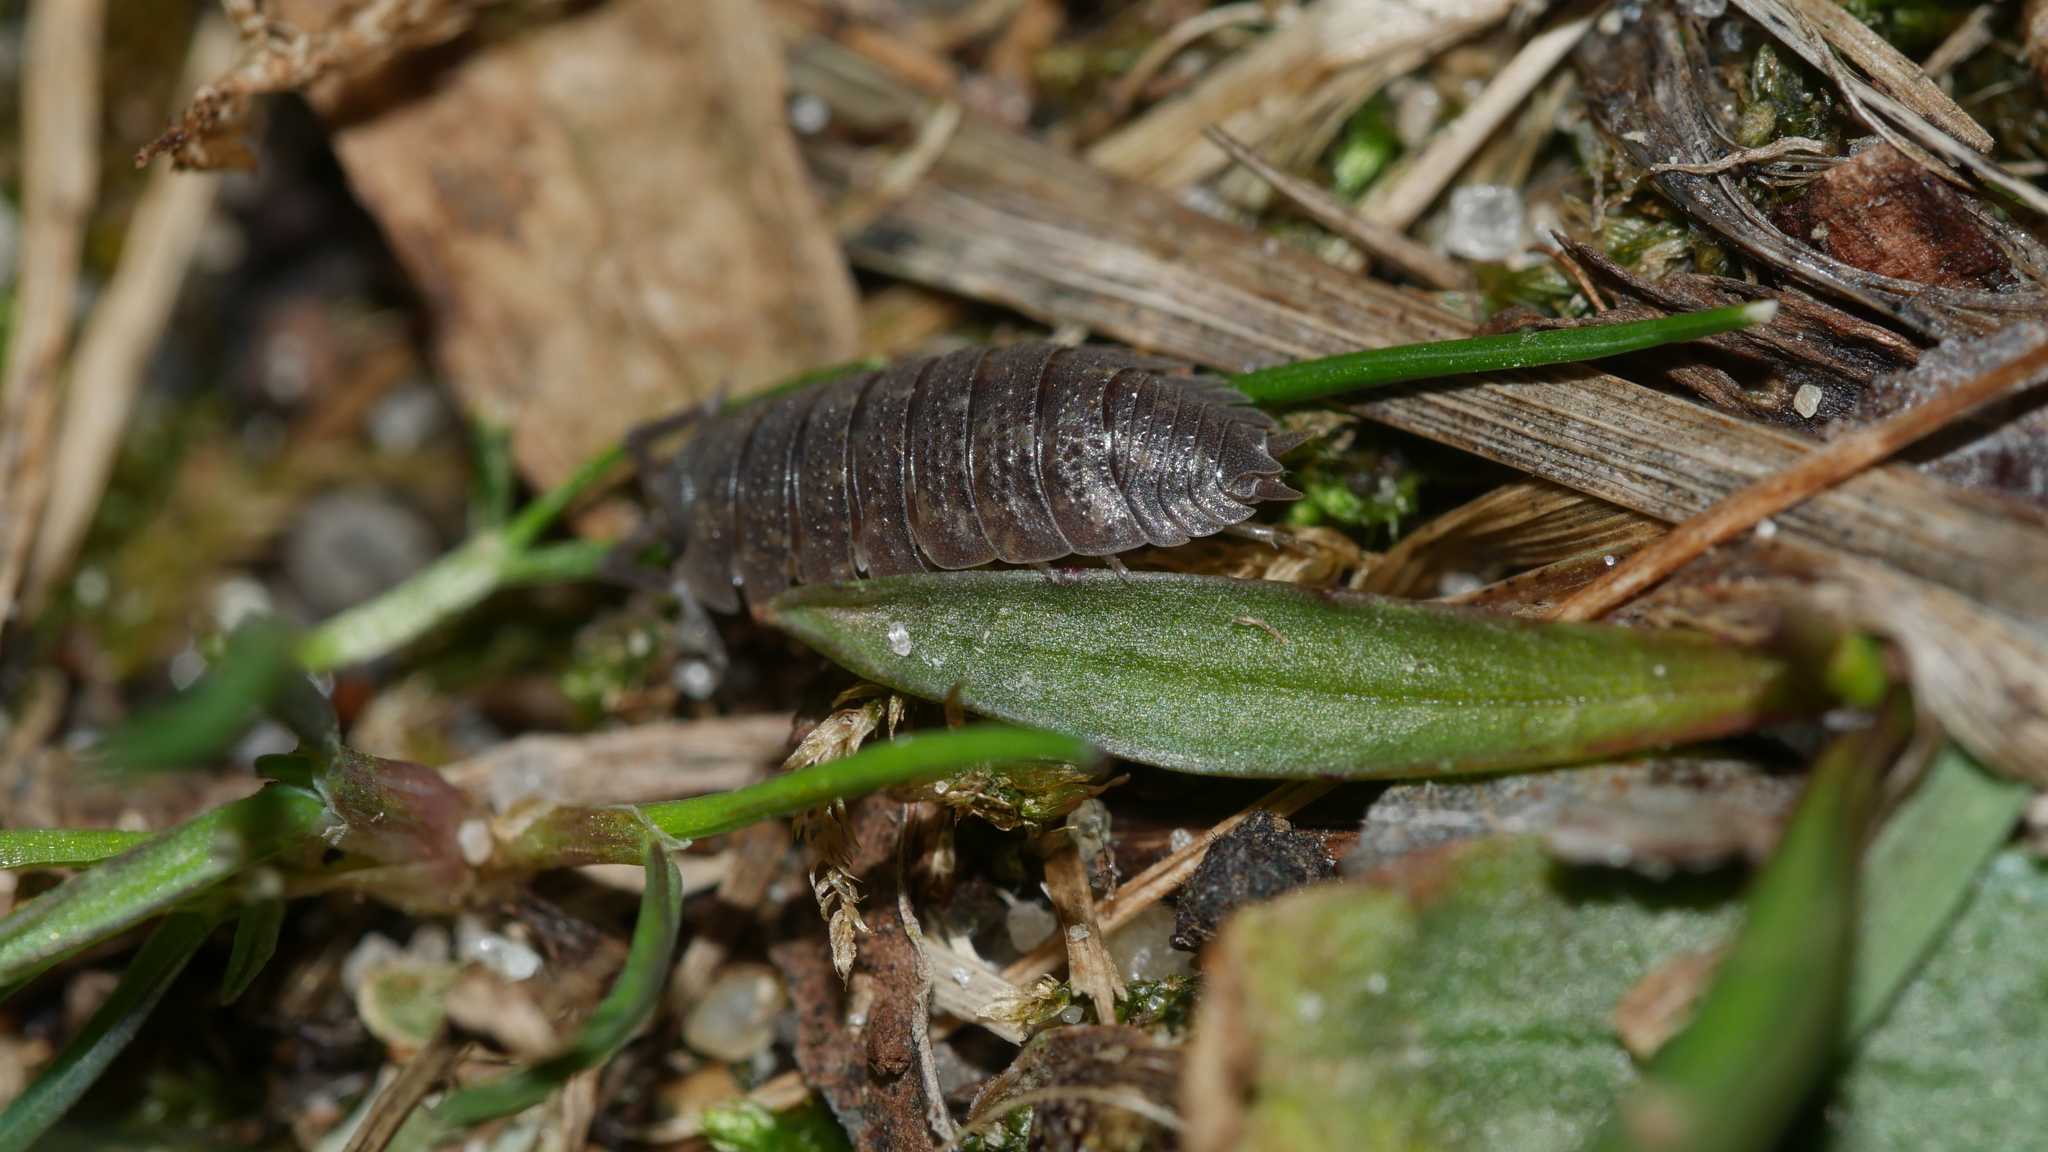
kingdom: Animalia
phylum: Arthropoda
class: Malacostraca
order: Isopoda
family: Porcellionidae
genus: Porcellio
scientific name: Porcellio scaber
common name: Common rough woodlouse
